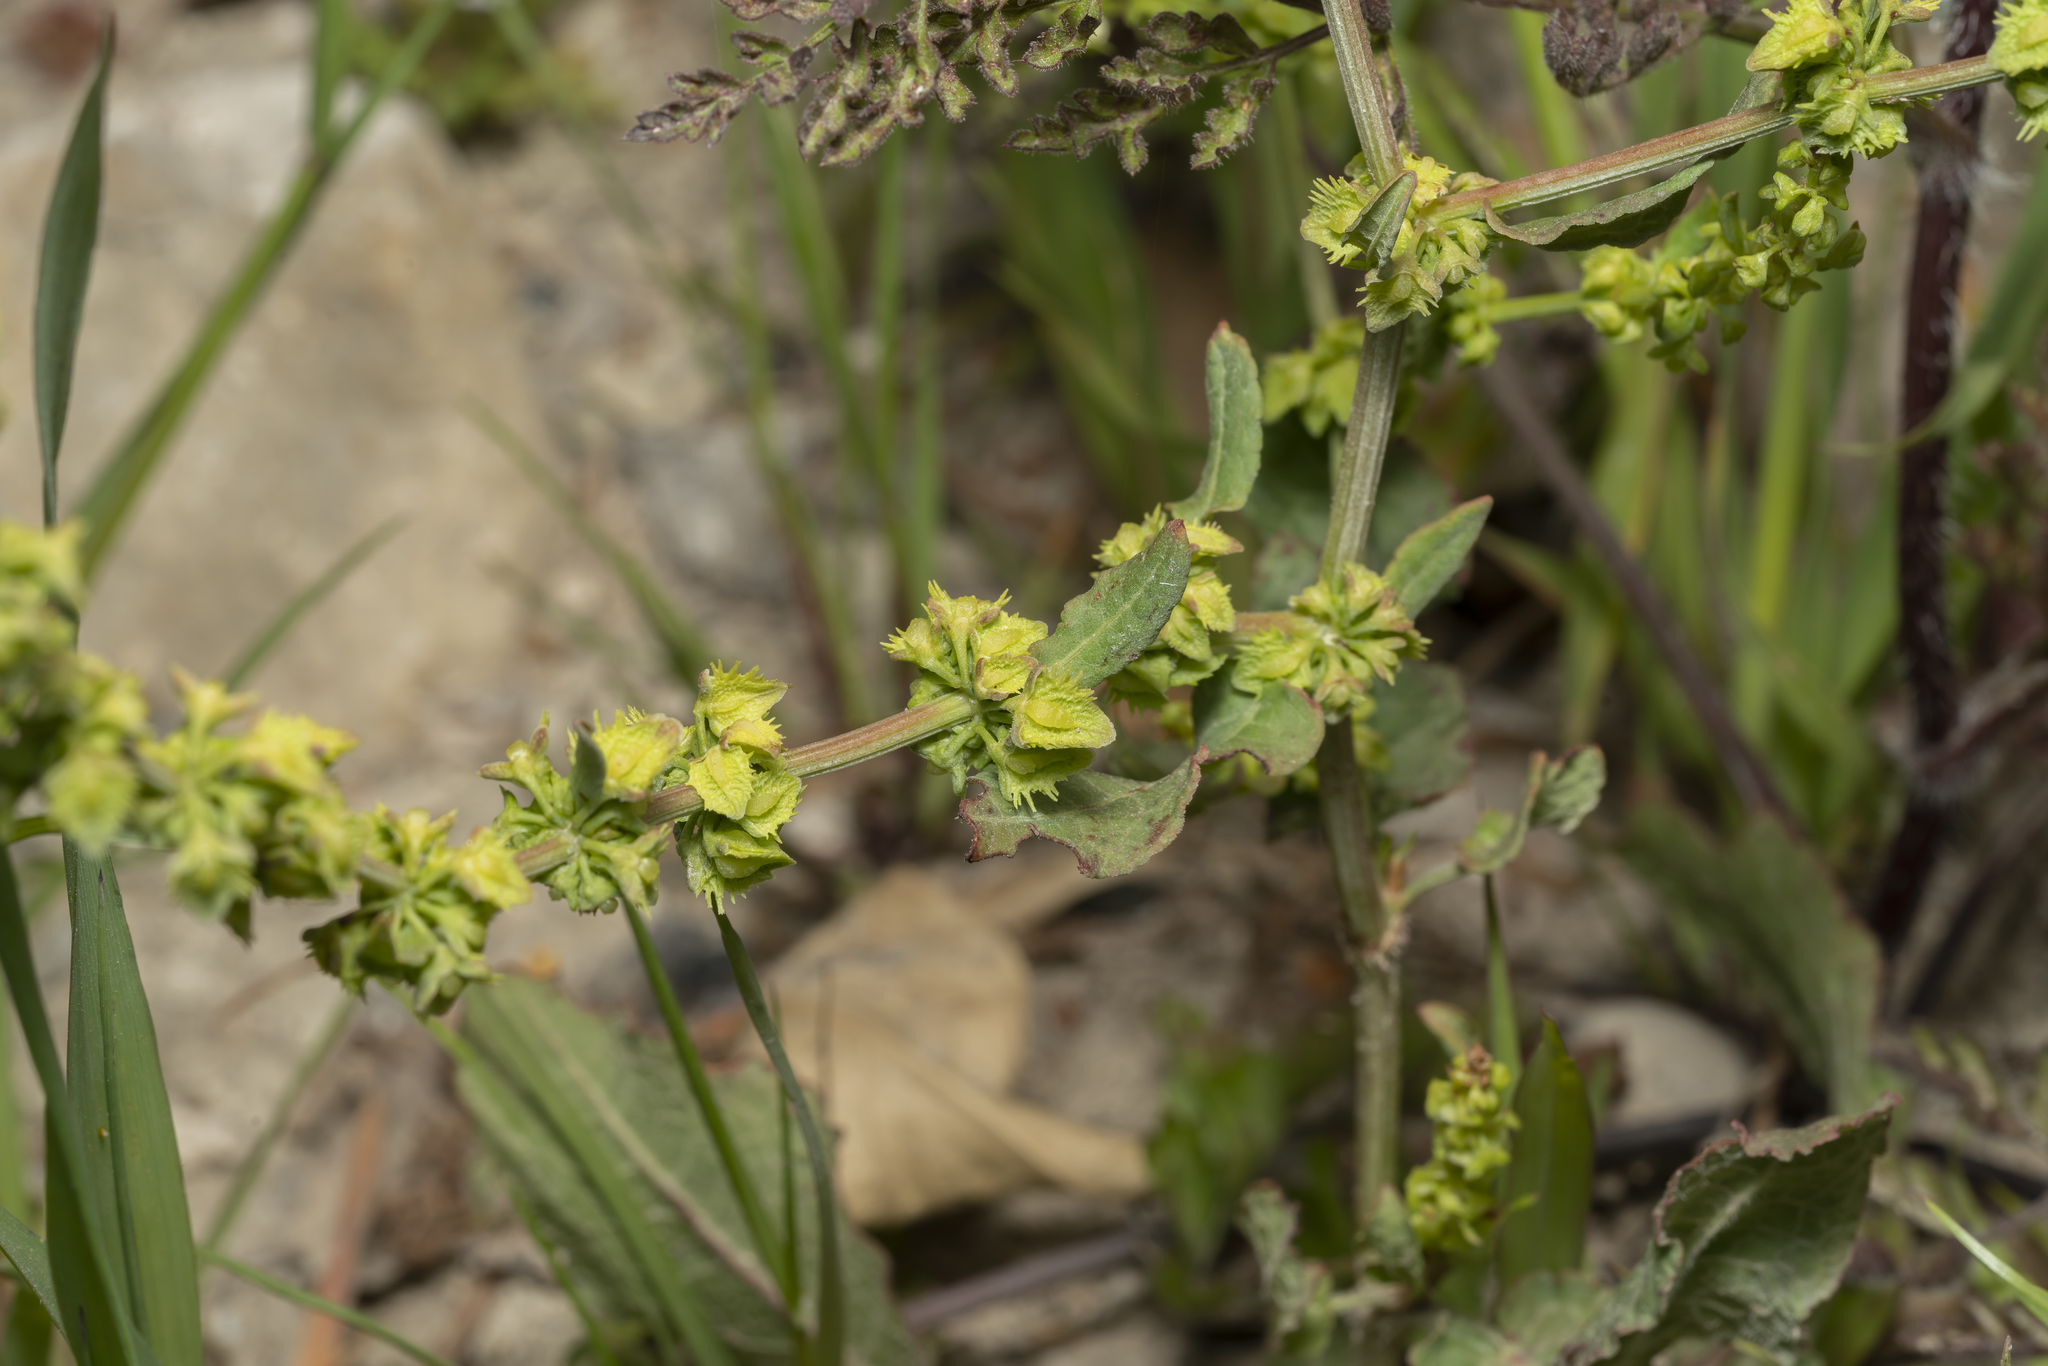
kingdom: Plantae
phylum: Tracheophyta
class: Magnoliopsida
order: Caryophyllales
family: Polygonaceae
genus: Rumex
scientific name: Rumex pulcher
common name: Fiddle dock
